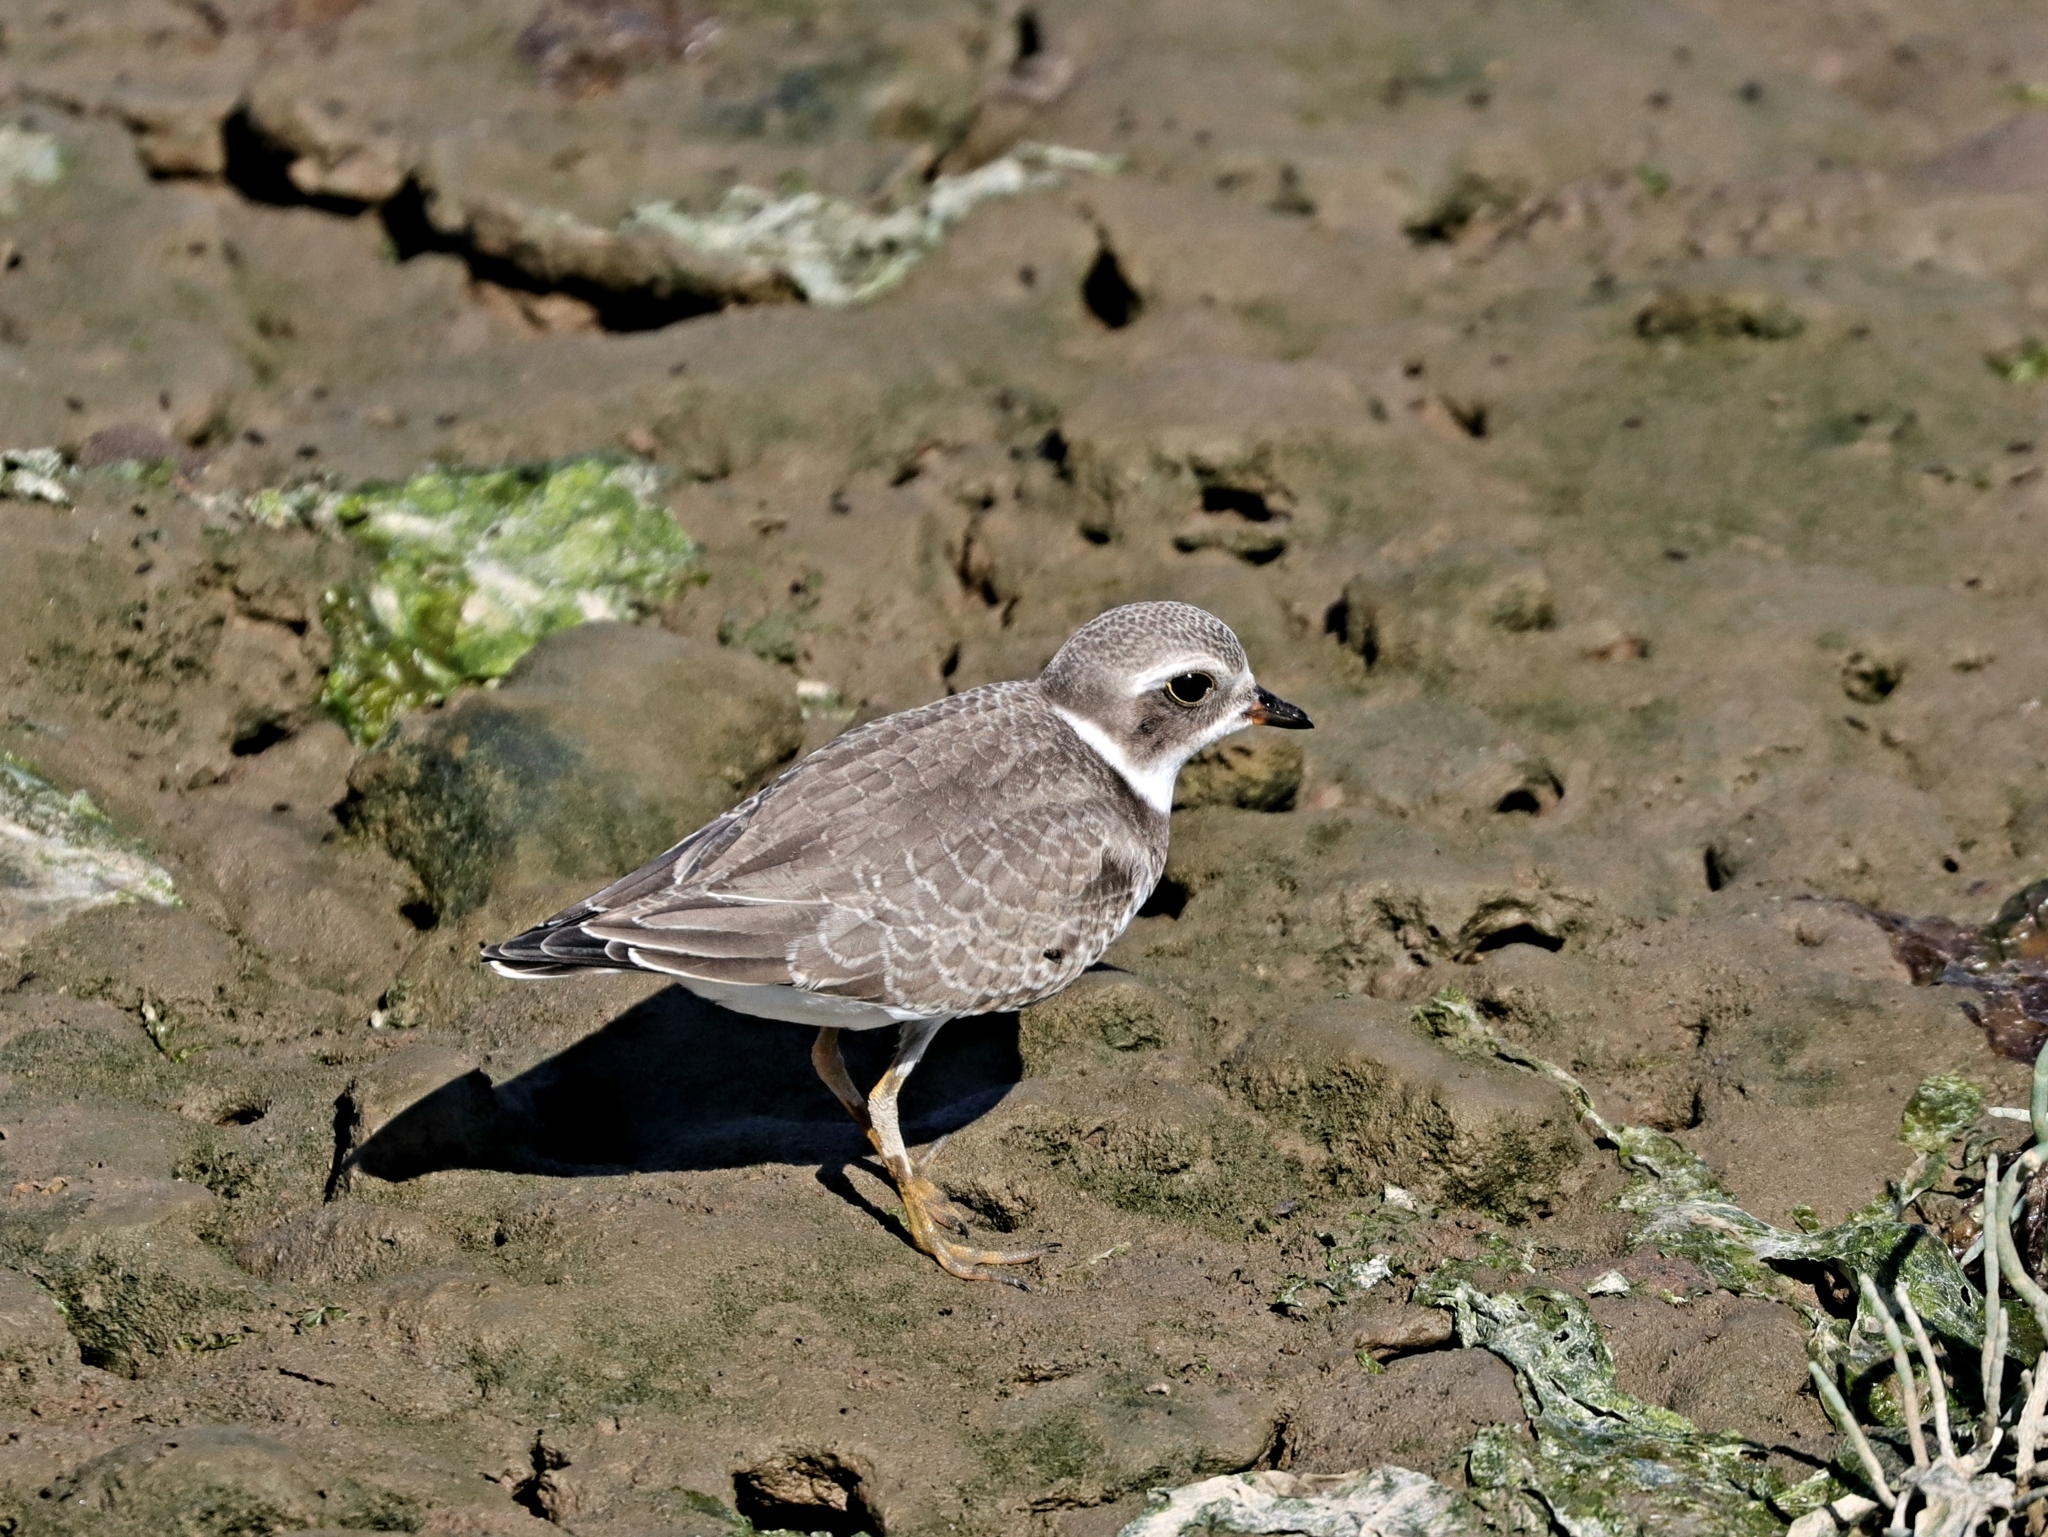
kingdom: Animalia
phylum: Chordata
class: Aves
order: Charadriiformes
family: Charadriidae
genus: Charadrius
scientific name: Charadrius semipalmatus
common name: Semipalmated plover
